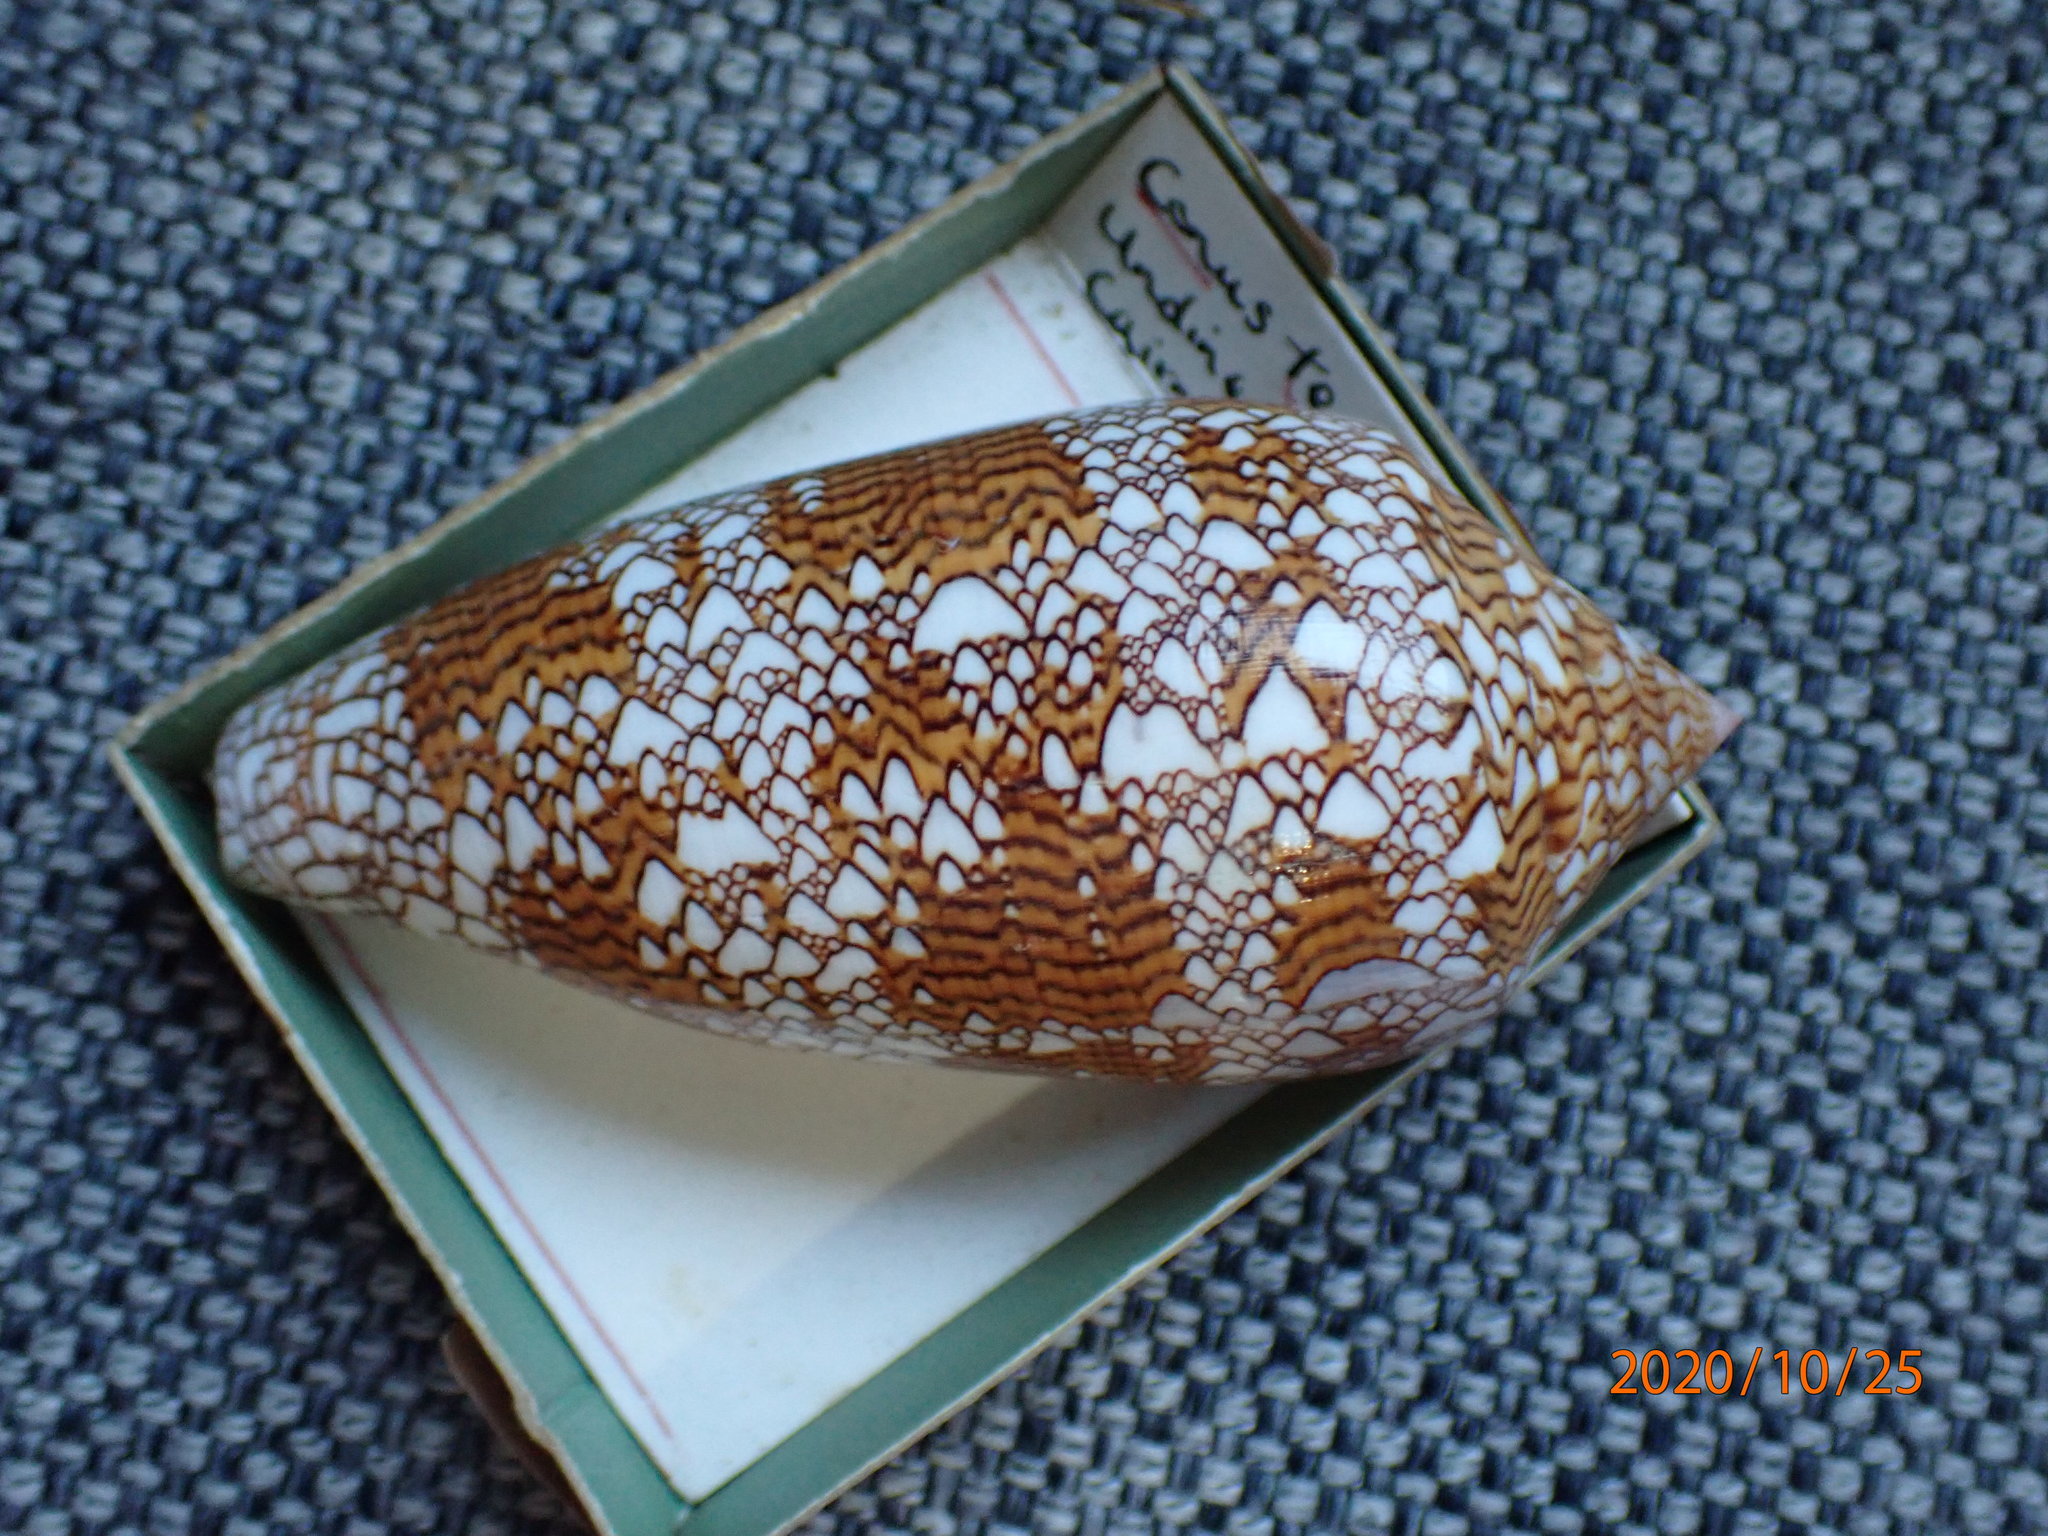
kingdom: Animalia
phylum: Mollusca
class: Gastropoda
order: Neogastropoda
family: Conidae
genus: Conus
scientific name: Conus textile
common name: Cloth-of-gold cone
